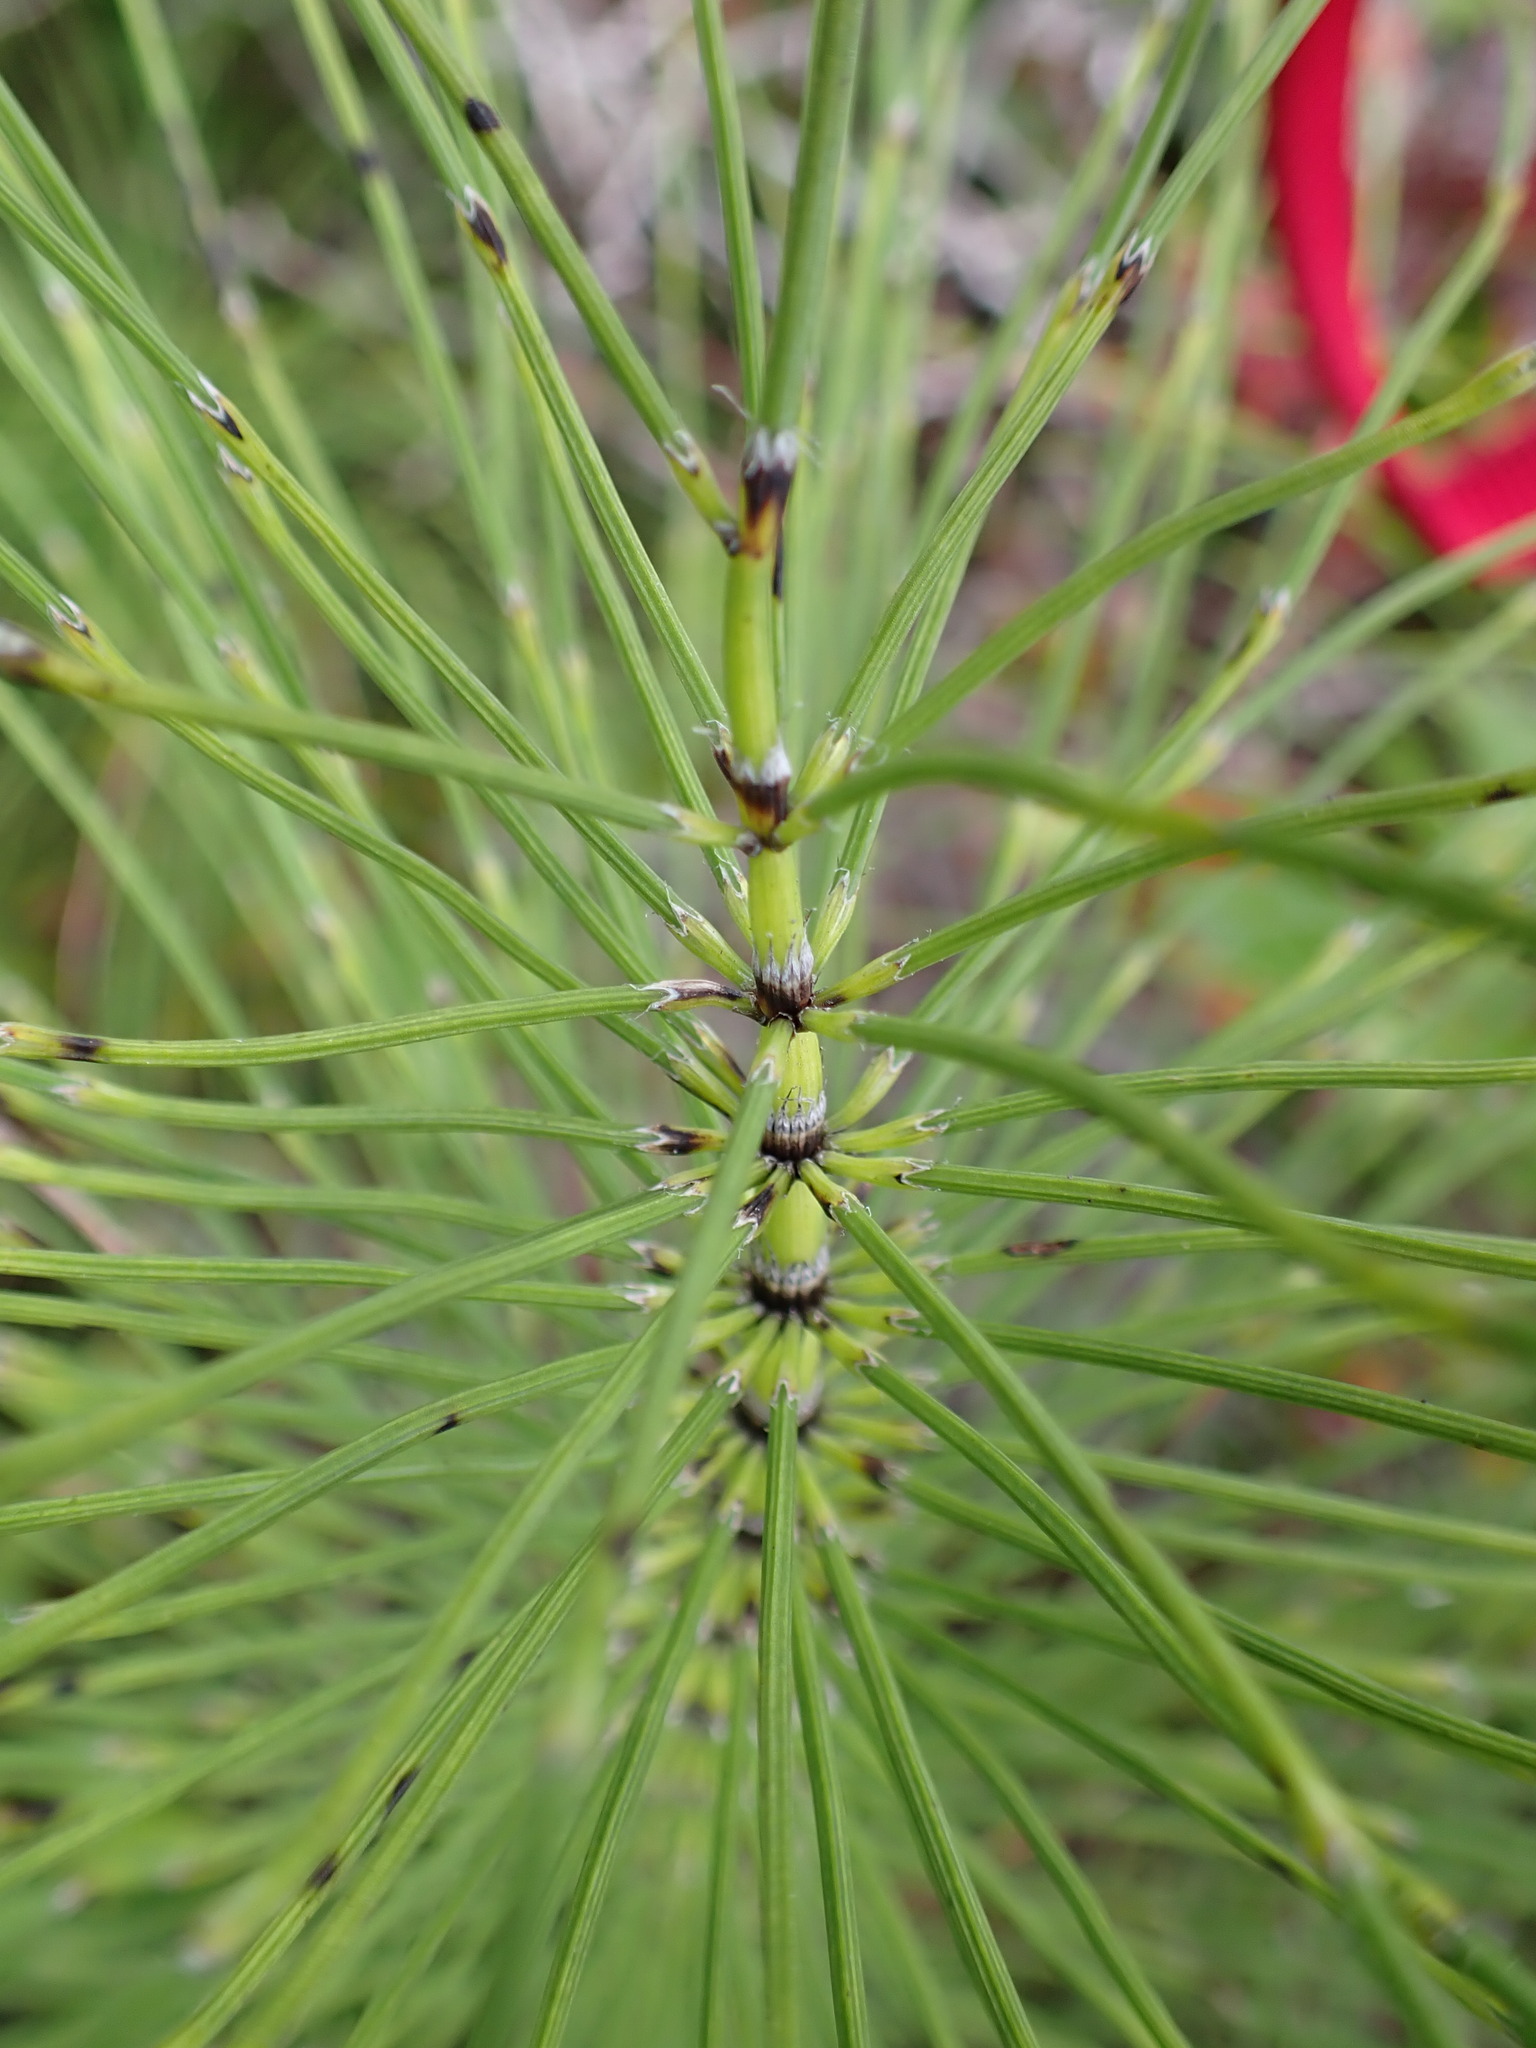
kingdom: Plantae
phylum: Tracheophyta
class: Polypodiopsida
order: Equisetales
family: Equisetaceae
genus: Equisetum
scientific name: Equisetum telmateia
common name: Great horsetail
